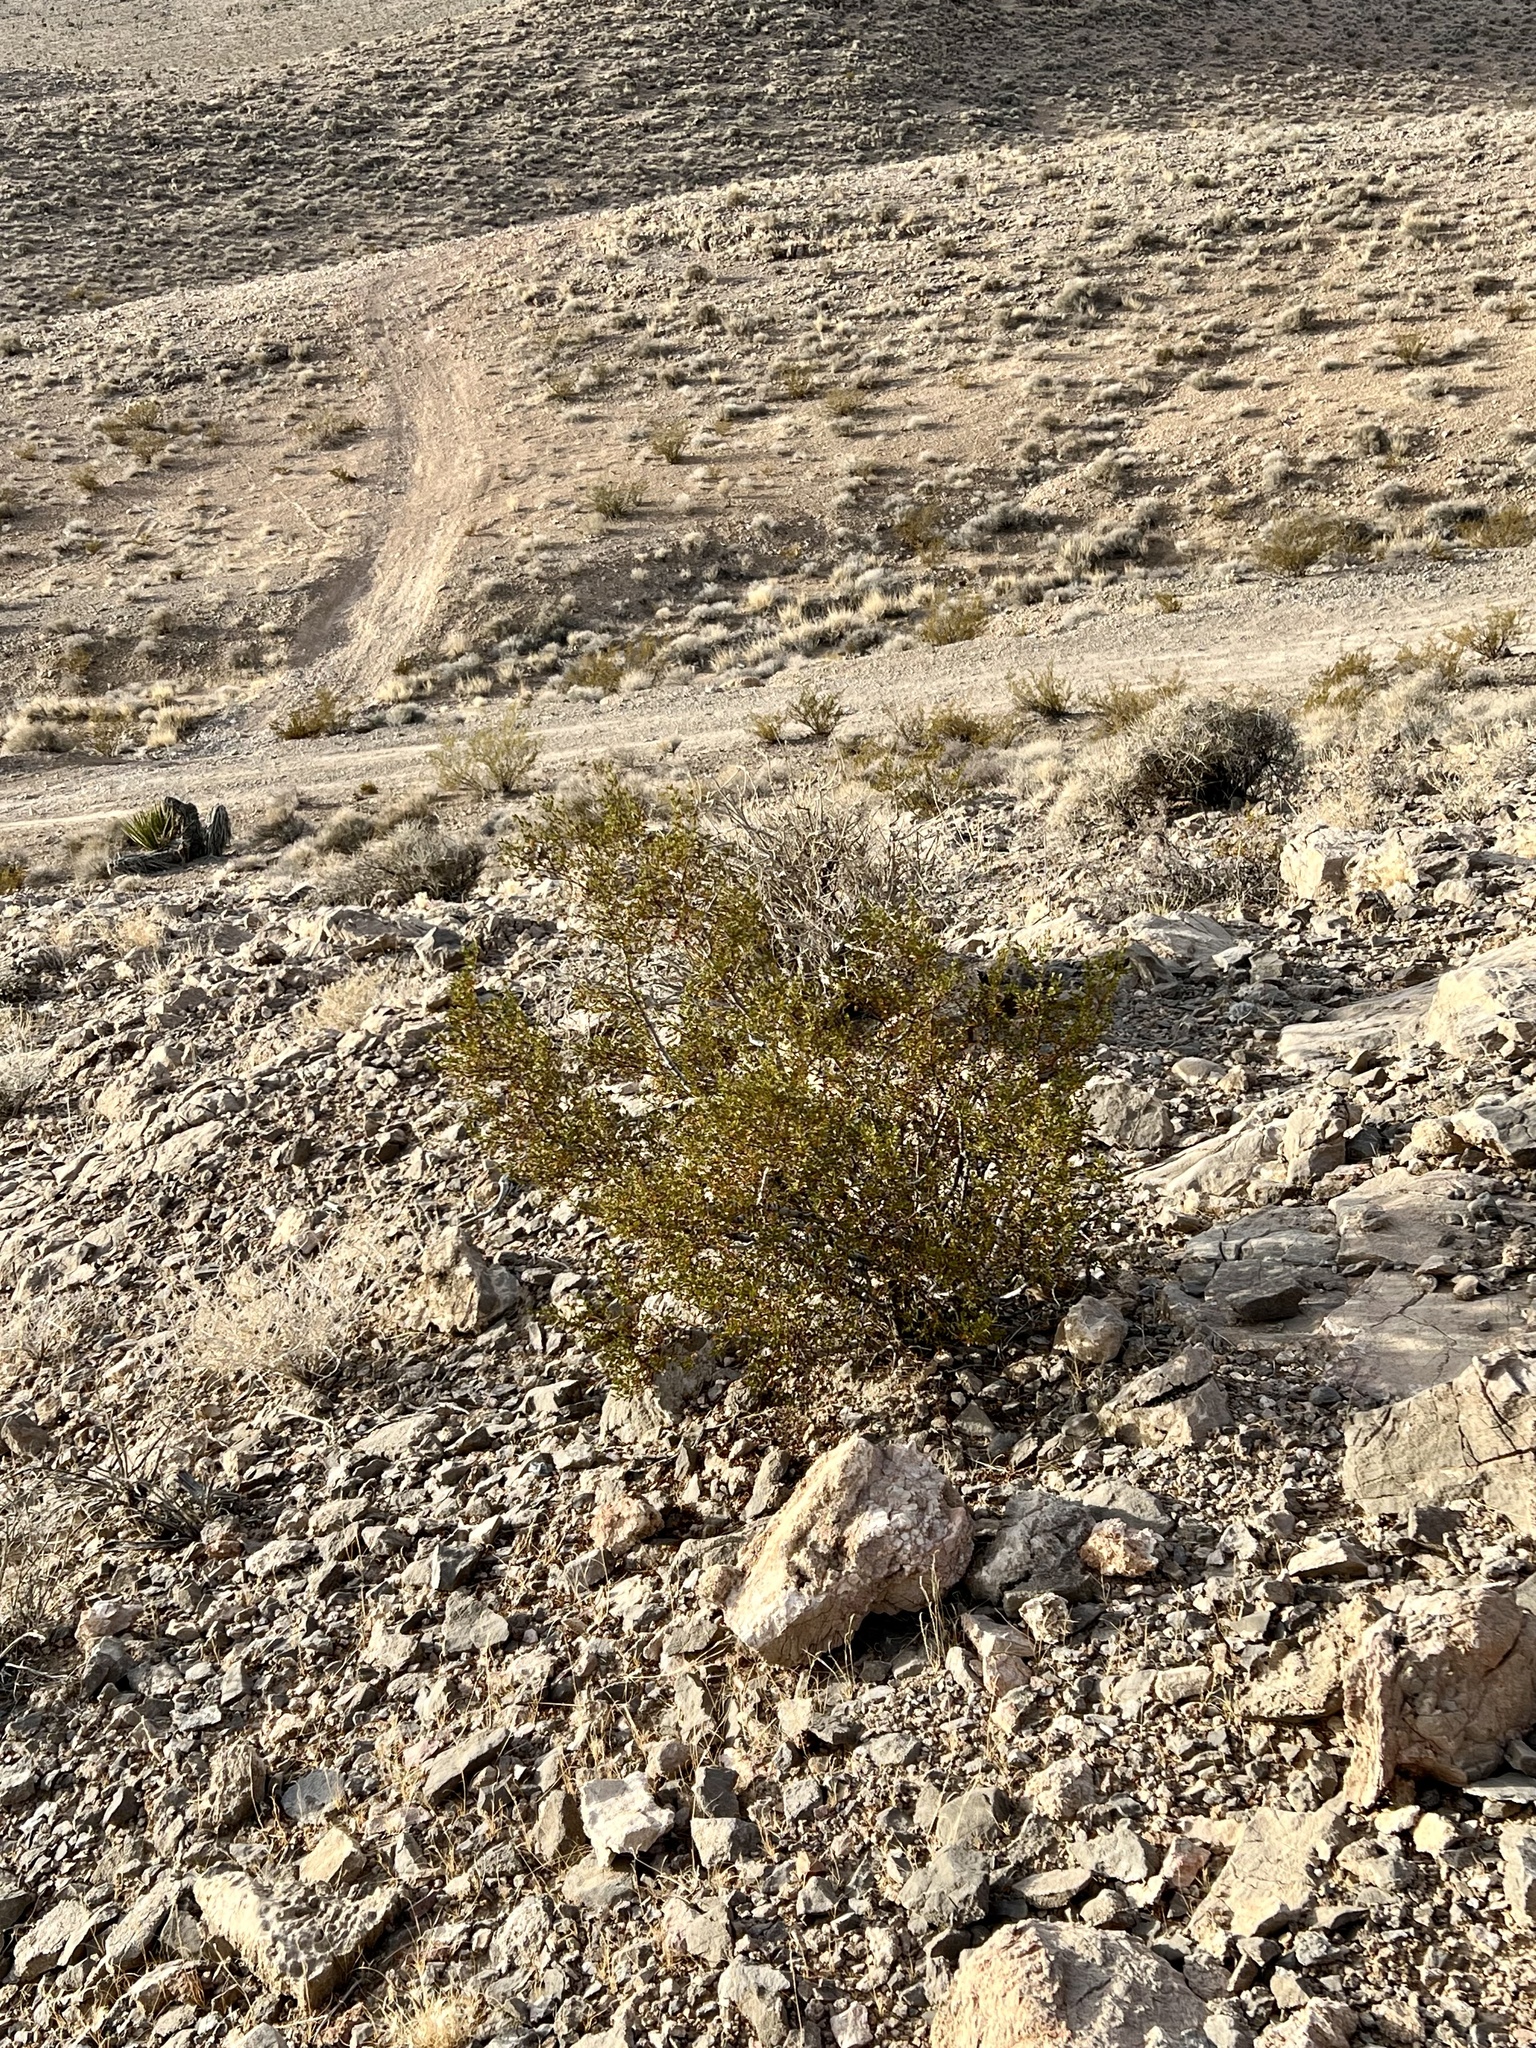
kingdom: Plantae
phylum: Tracheophyta
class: Magnoliopsida
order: Zygophyllales
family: Zygophyllaceae
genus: Larrea
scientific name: Larrea tridentata
